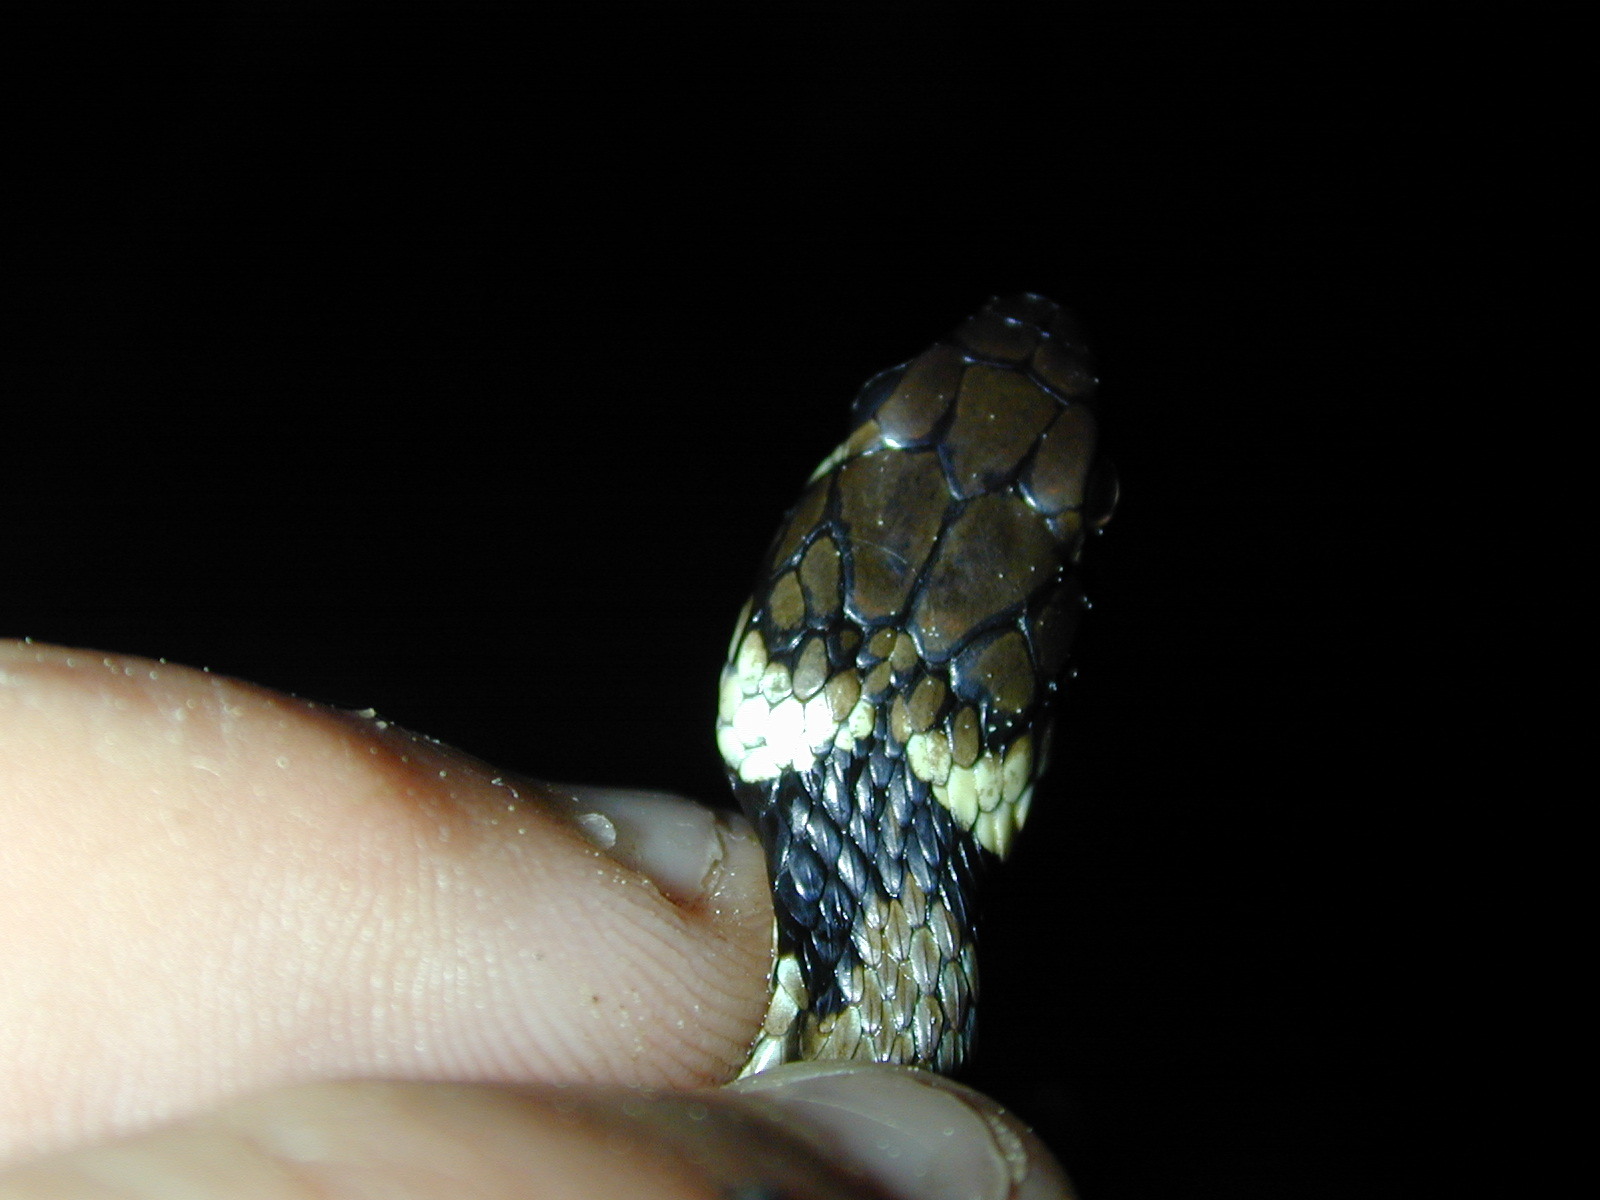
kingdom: Animalia
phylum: Chordata
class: Squamata
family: Colubridae
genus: Natrix
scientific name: Natrix helvetica
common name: Banded grass snake
